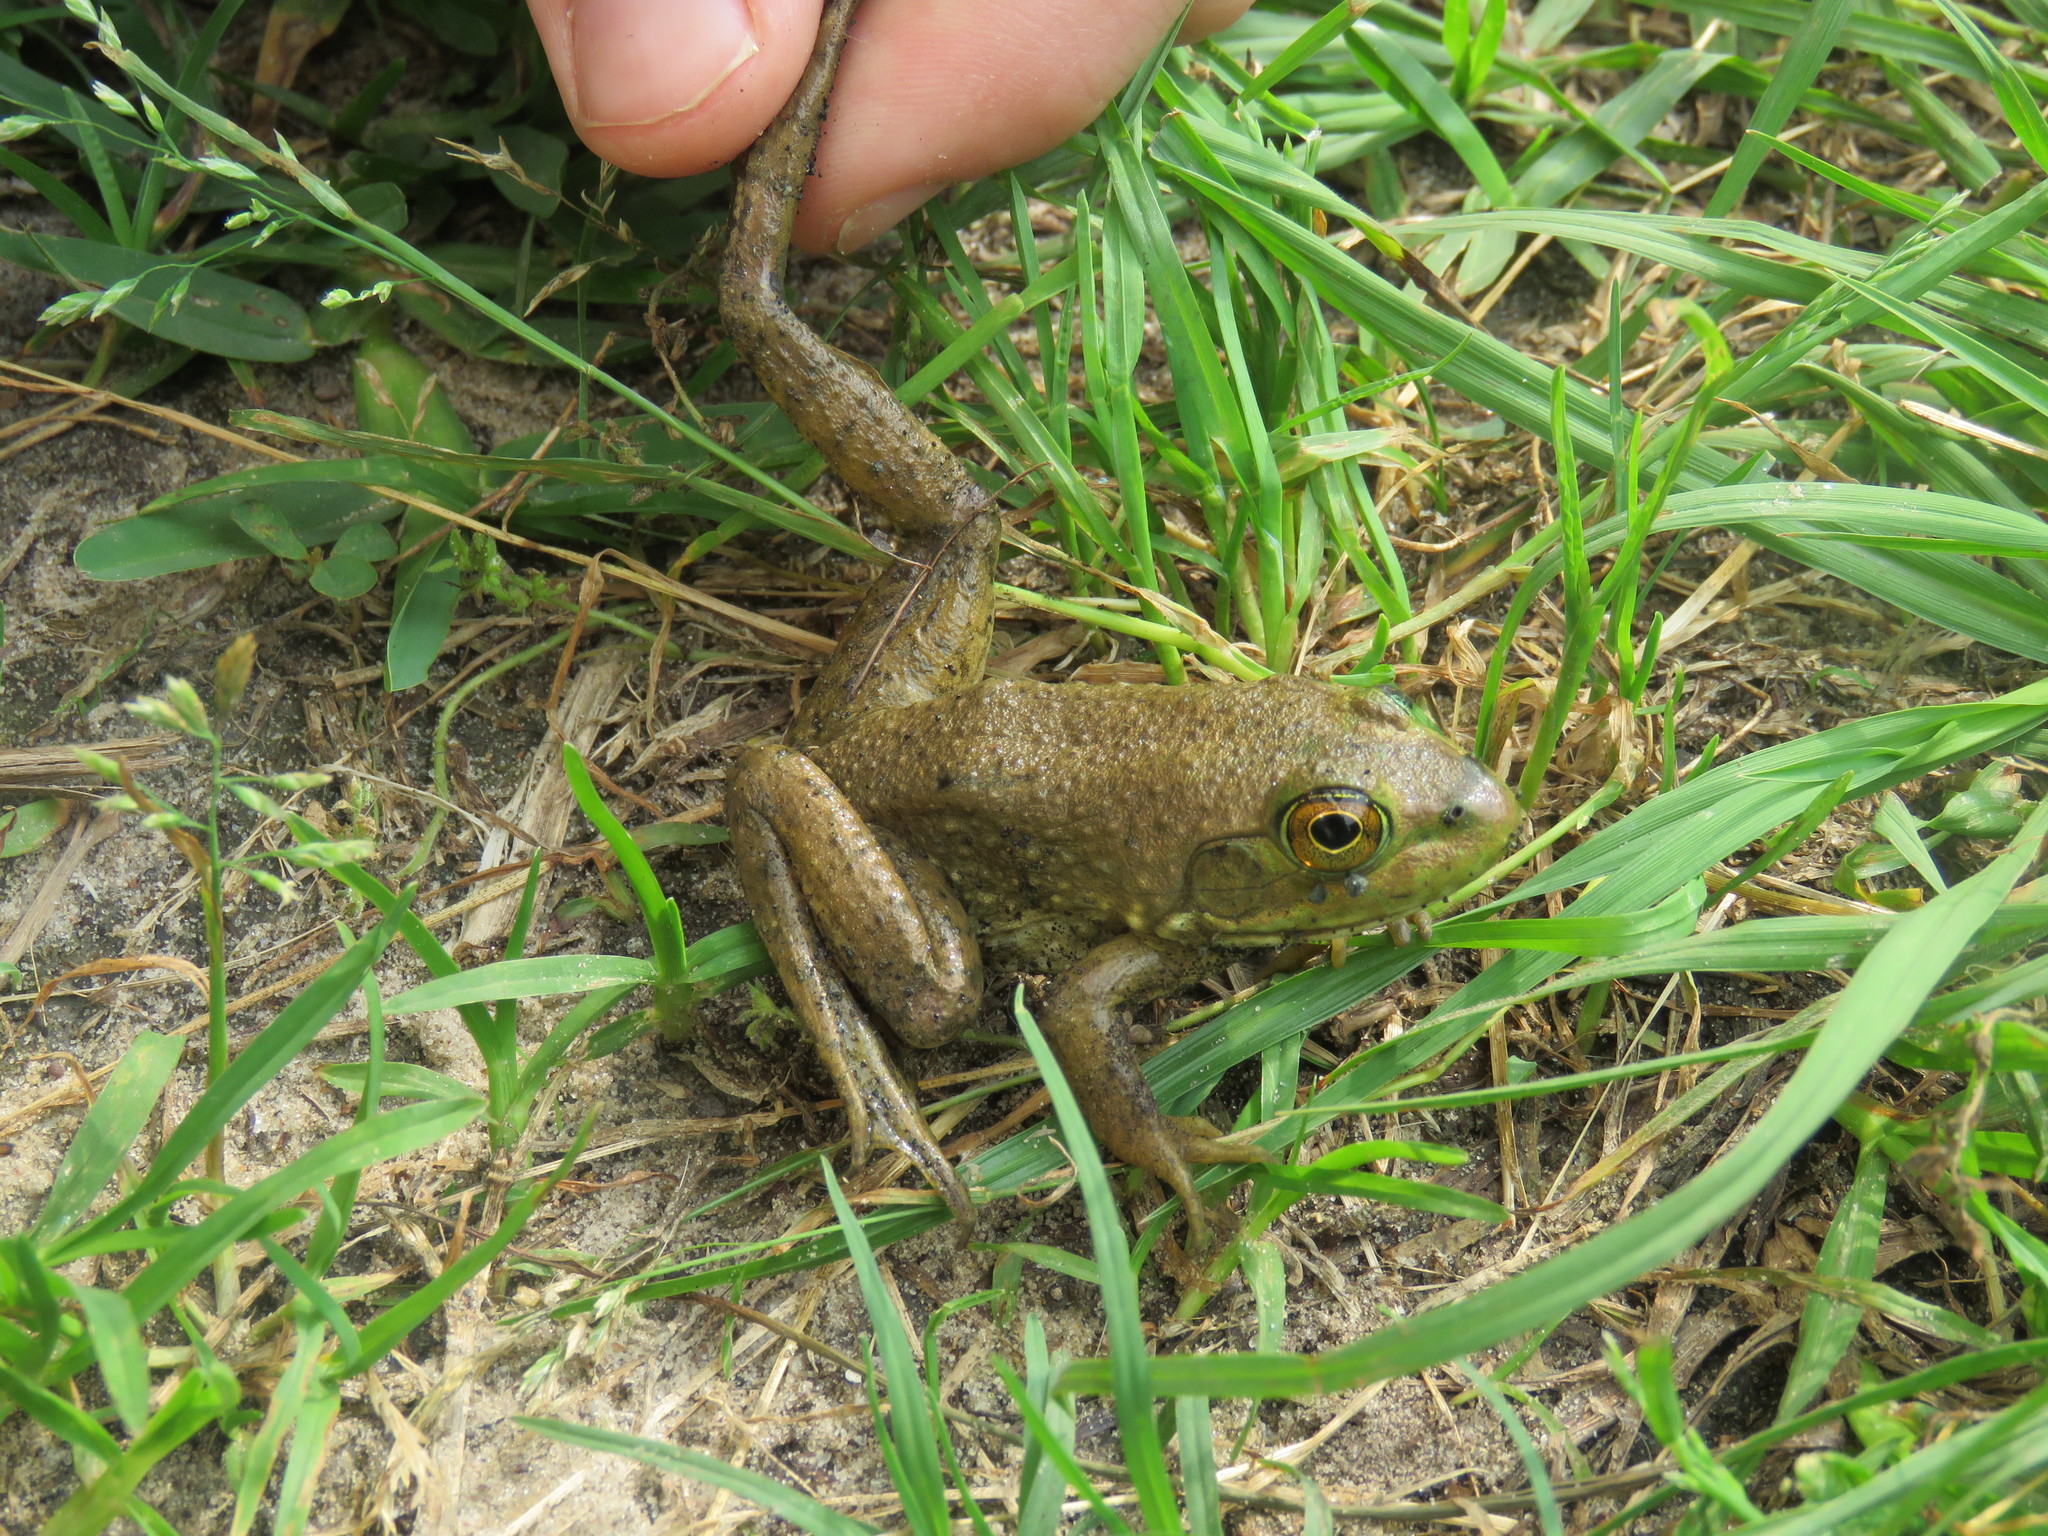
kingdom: Animalia
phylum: Chordata
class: Amphibia
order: Anura
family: Ranidae
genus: Lithobates
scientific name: Lithobates catesbeianus
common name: American bullfrog
